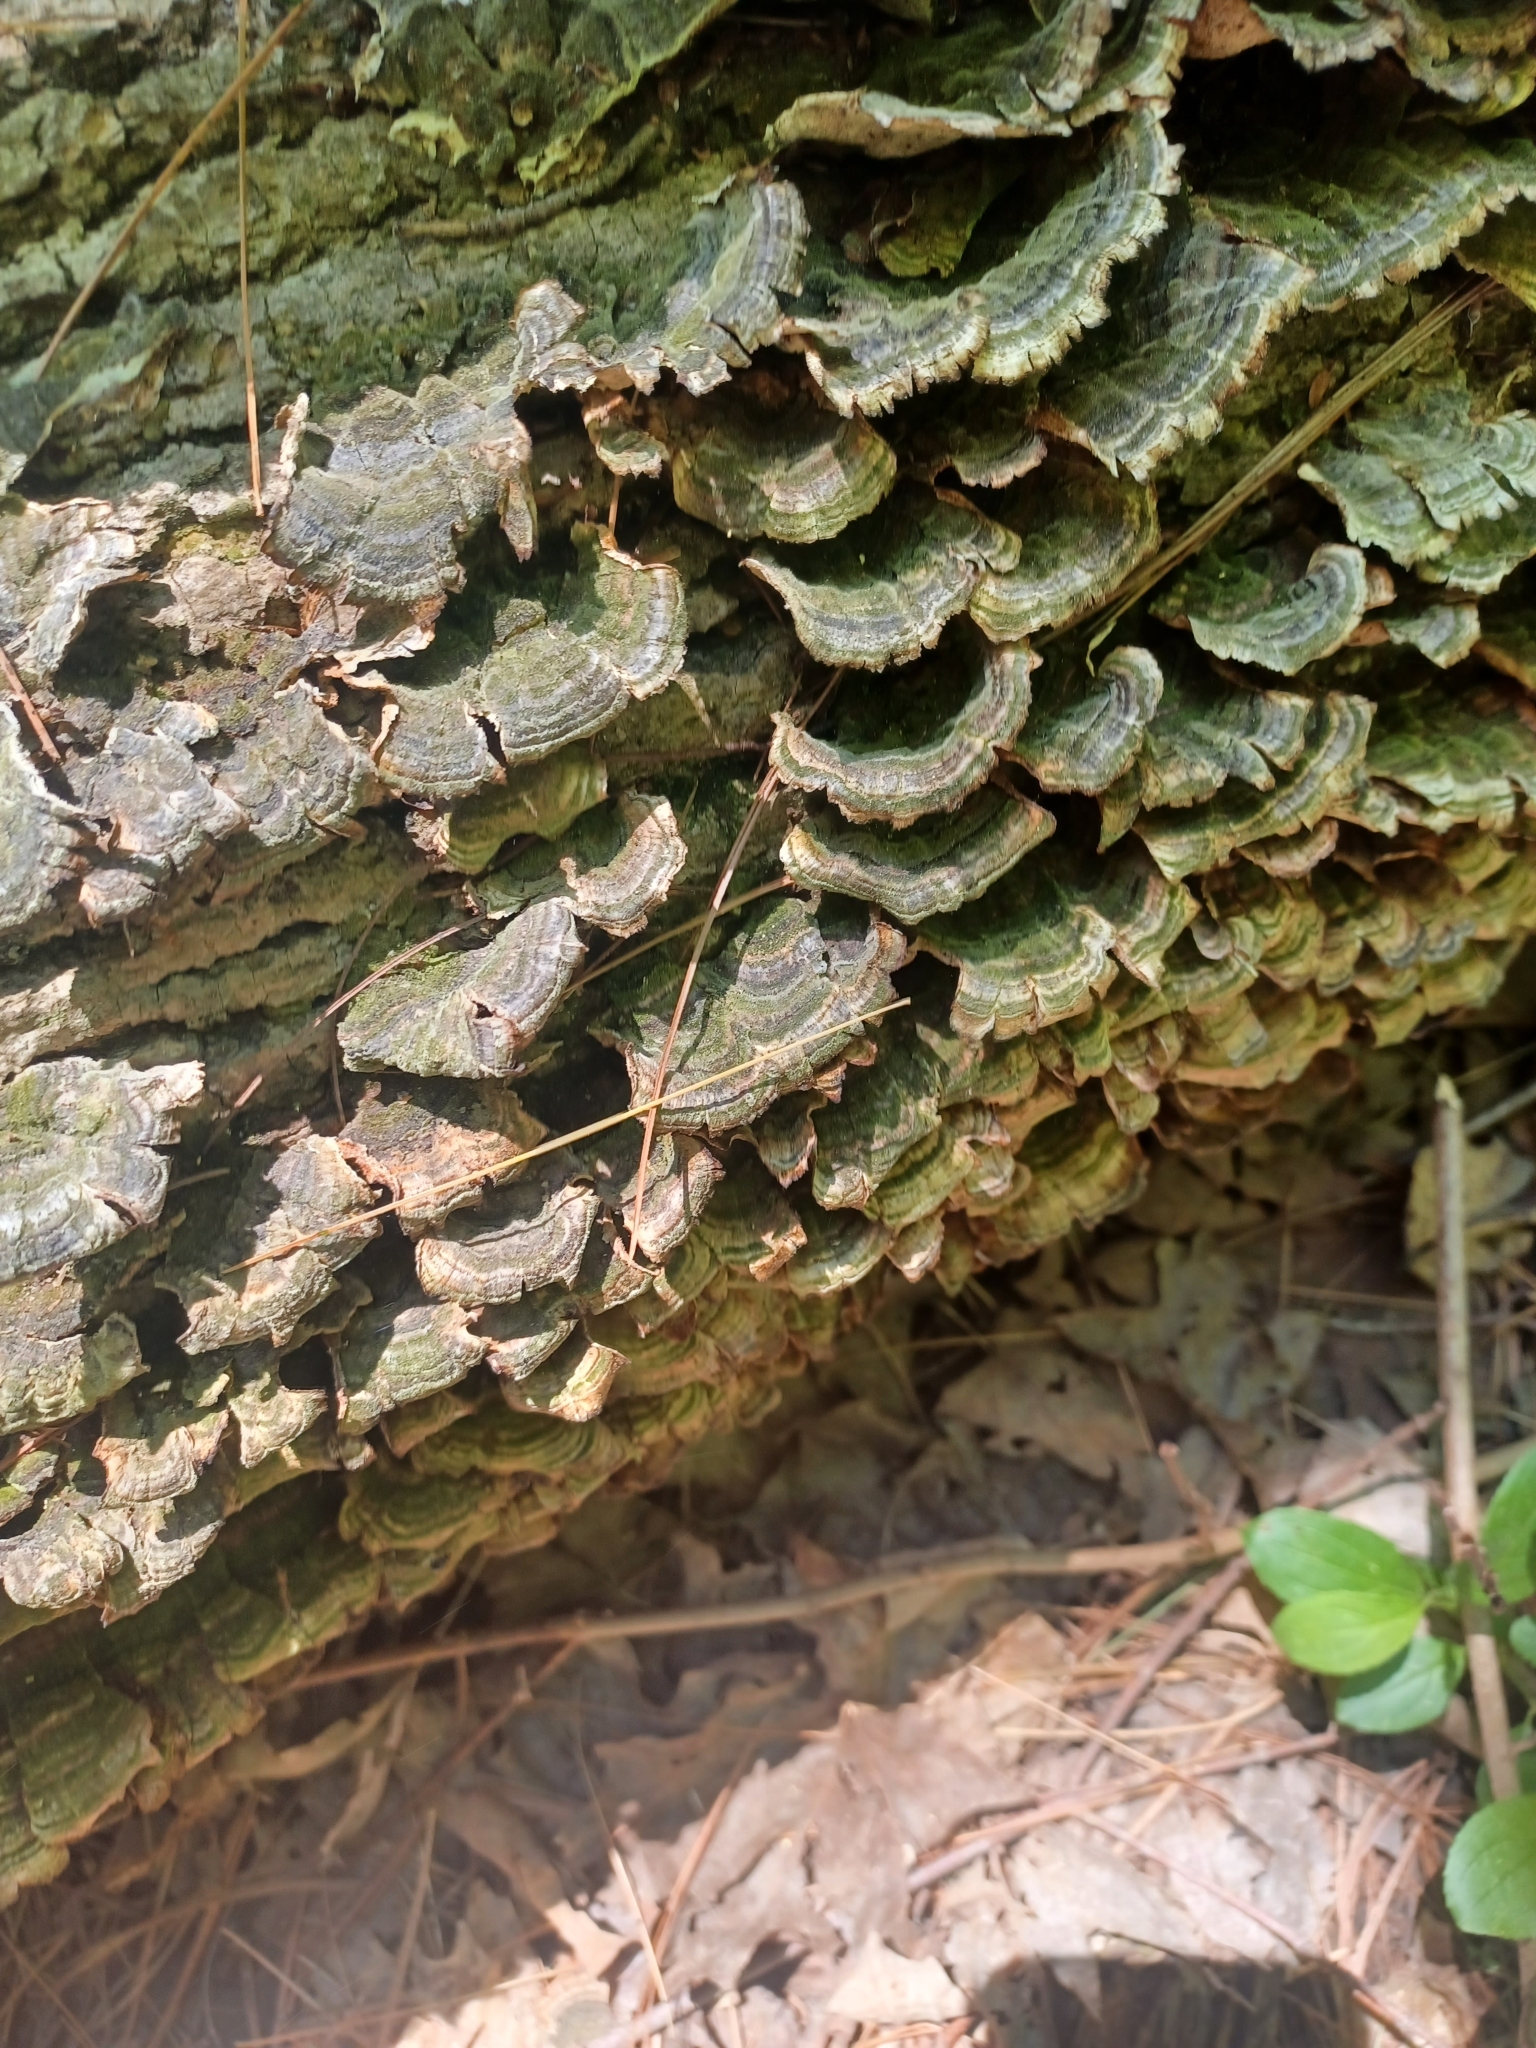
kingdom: Fungi
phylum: Basidiomycota
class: Agaricomycetes
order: Polyporales
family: Polyporaceae
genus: Trametes
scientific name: Trametes versicolor
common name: Turkeytail
